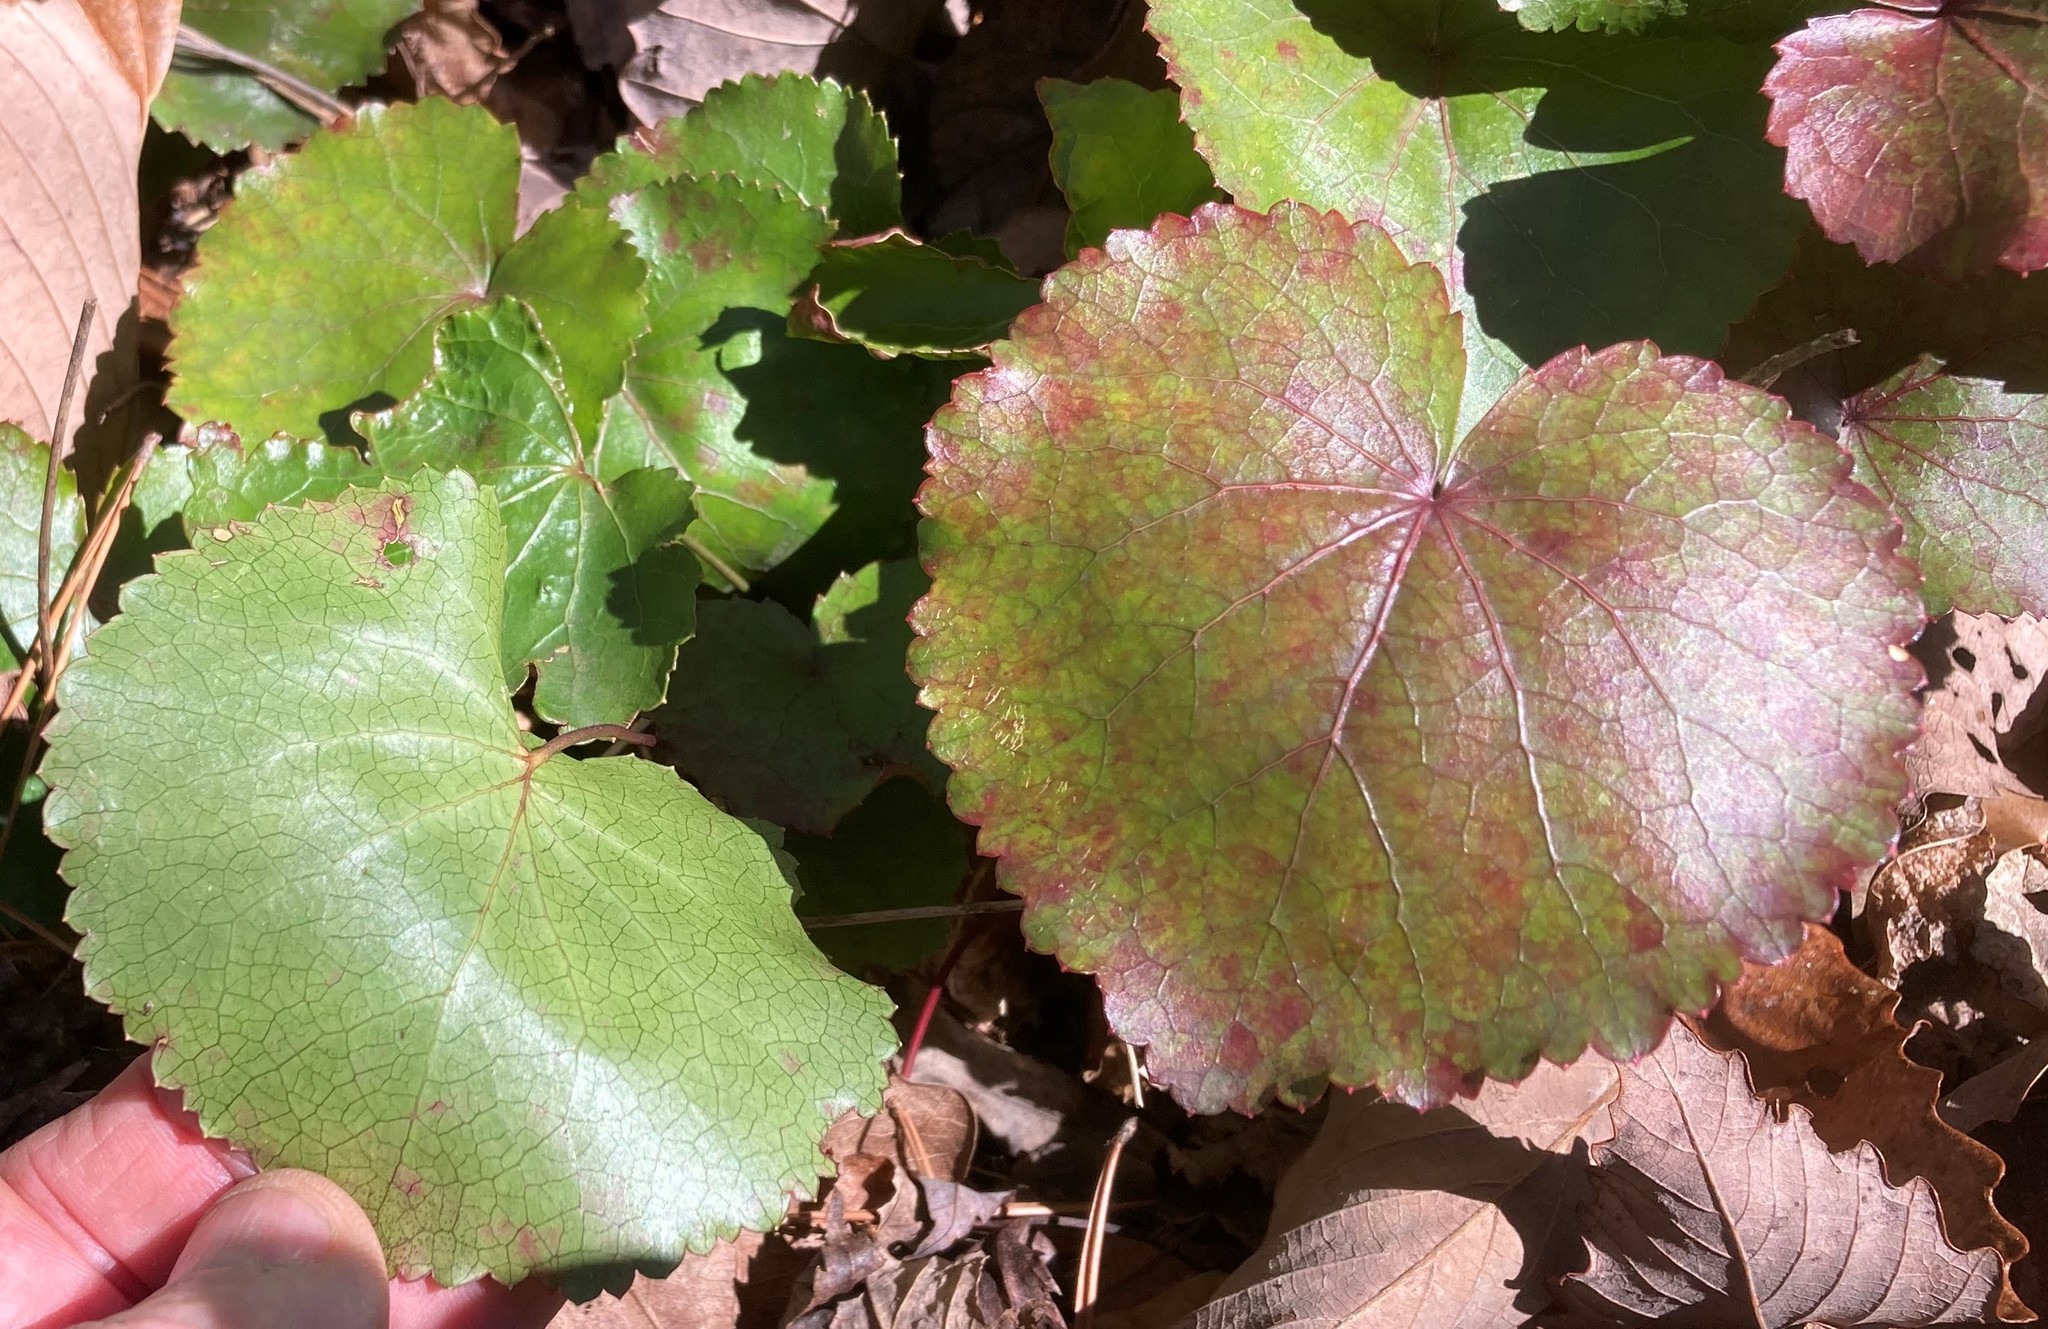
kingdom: Plantae
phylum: Tracheophyta
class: Magnoliopsida
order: Ericales
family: Diapensiaceae
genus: Galax
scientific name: Galax urceolata
